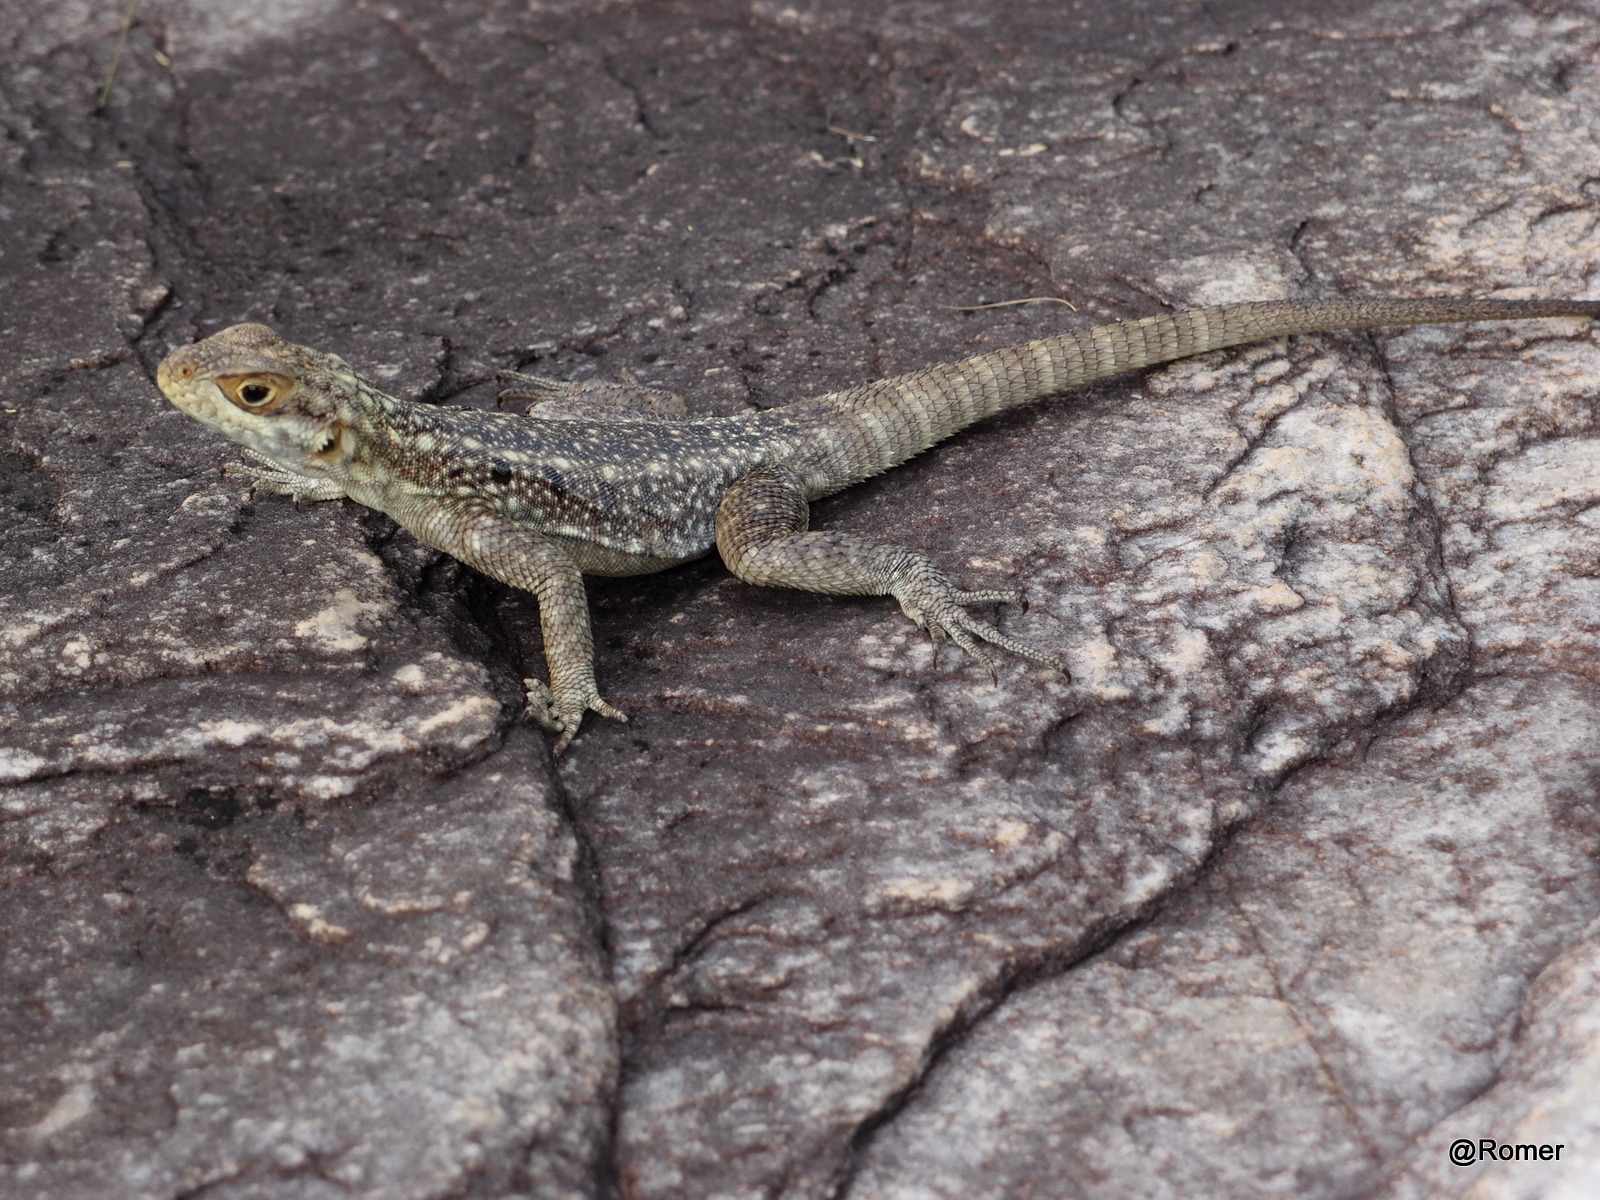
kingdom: Animalia
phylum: Chordata
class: Squamata
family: Opluridae
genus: Oplurus
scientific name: Oplurus quadrimaculatus
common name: Duméril's madagascar swift
